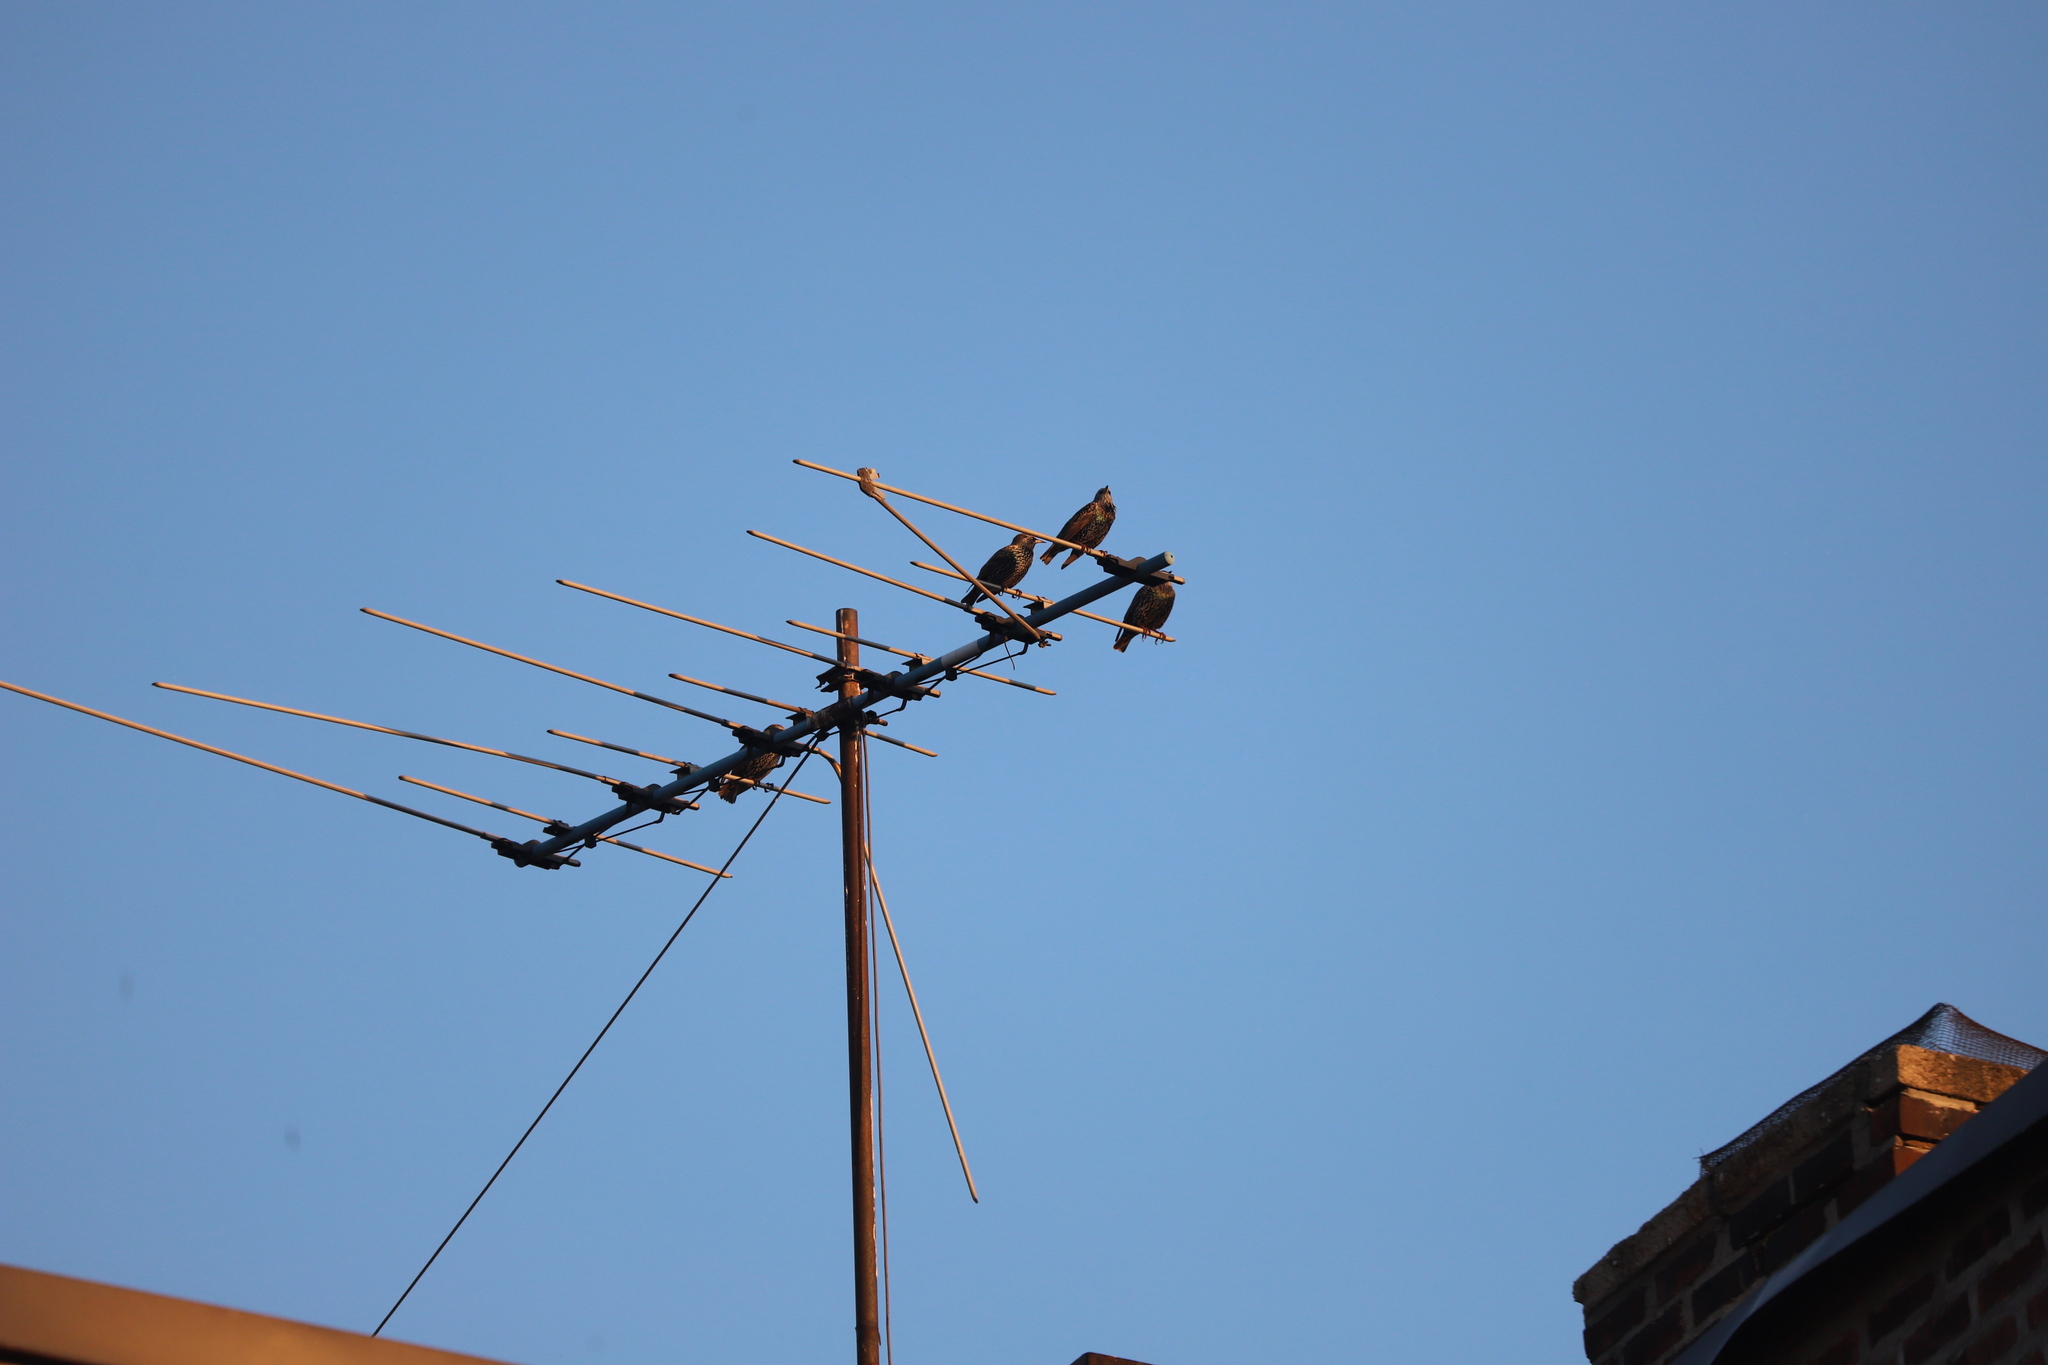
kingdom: Animalia
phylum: Chordata
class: Aves
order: Passeriformes
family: Sturnidae
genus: Sturnus
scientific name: Sturnus vulgaris
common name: Common starling
